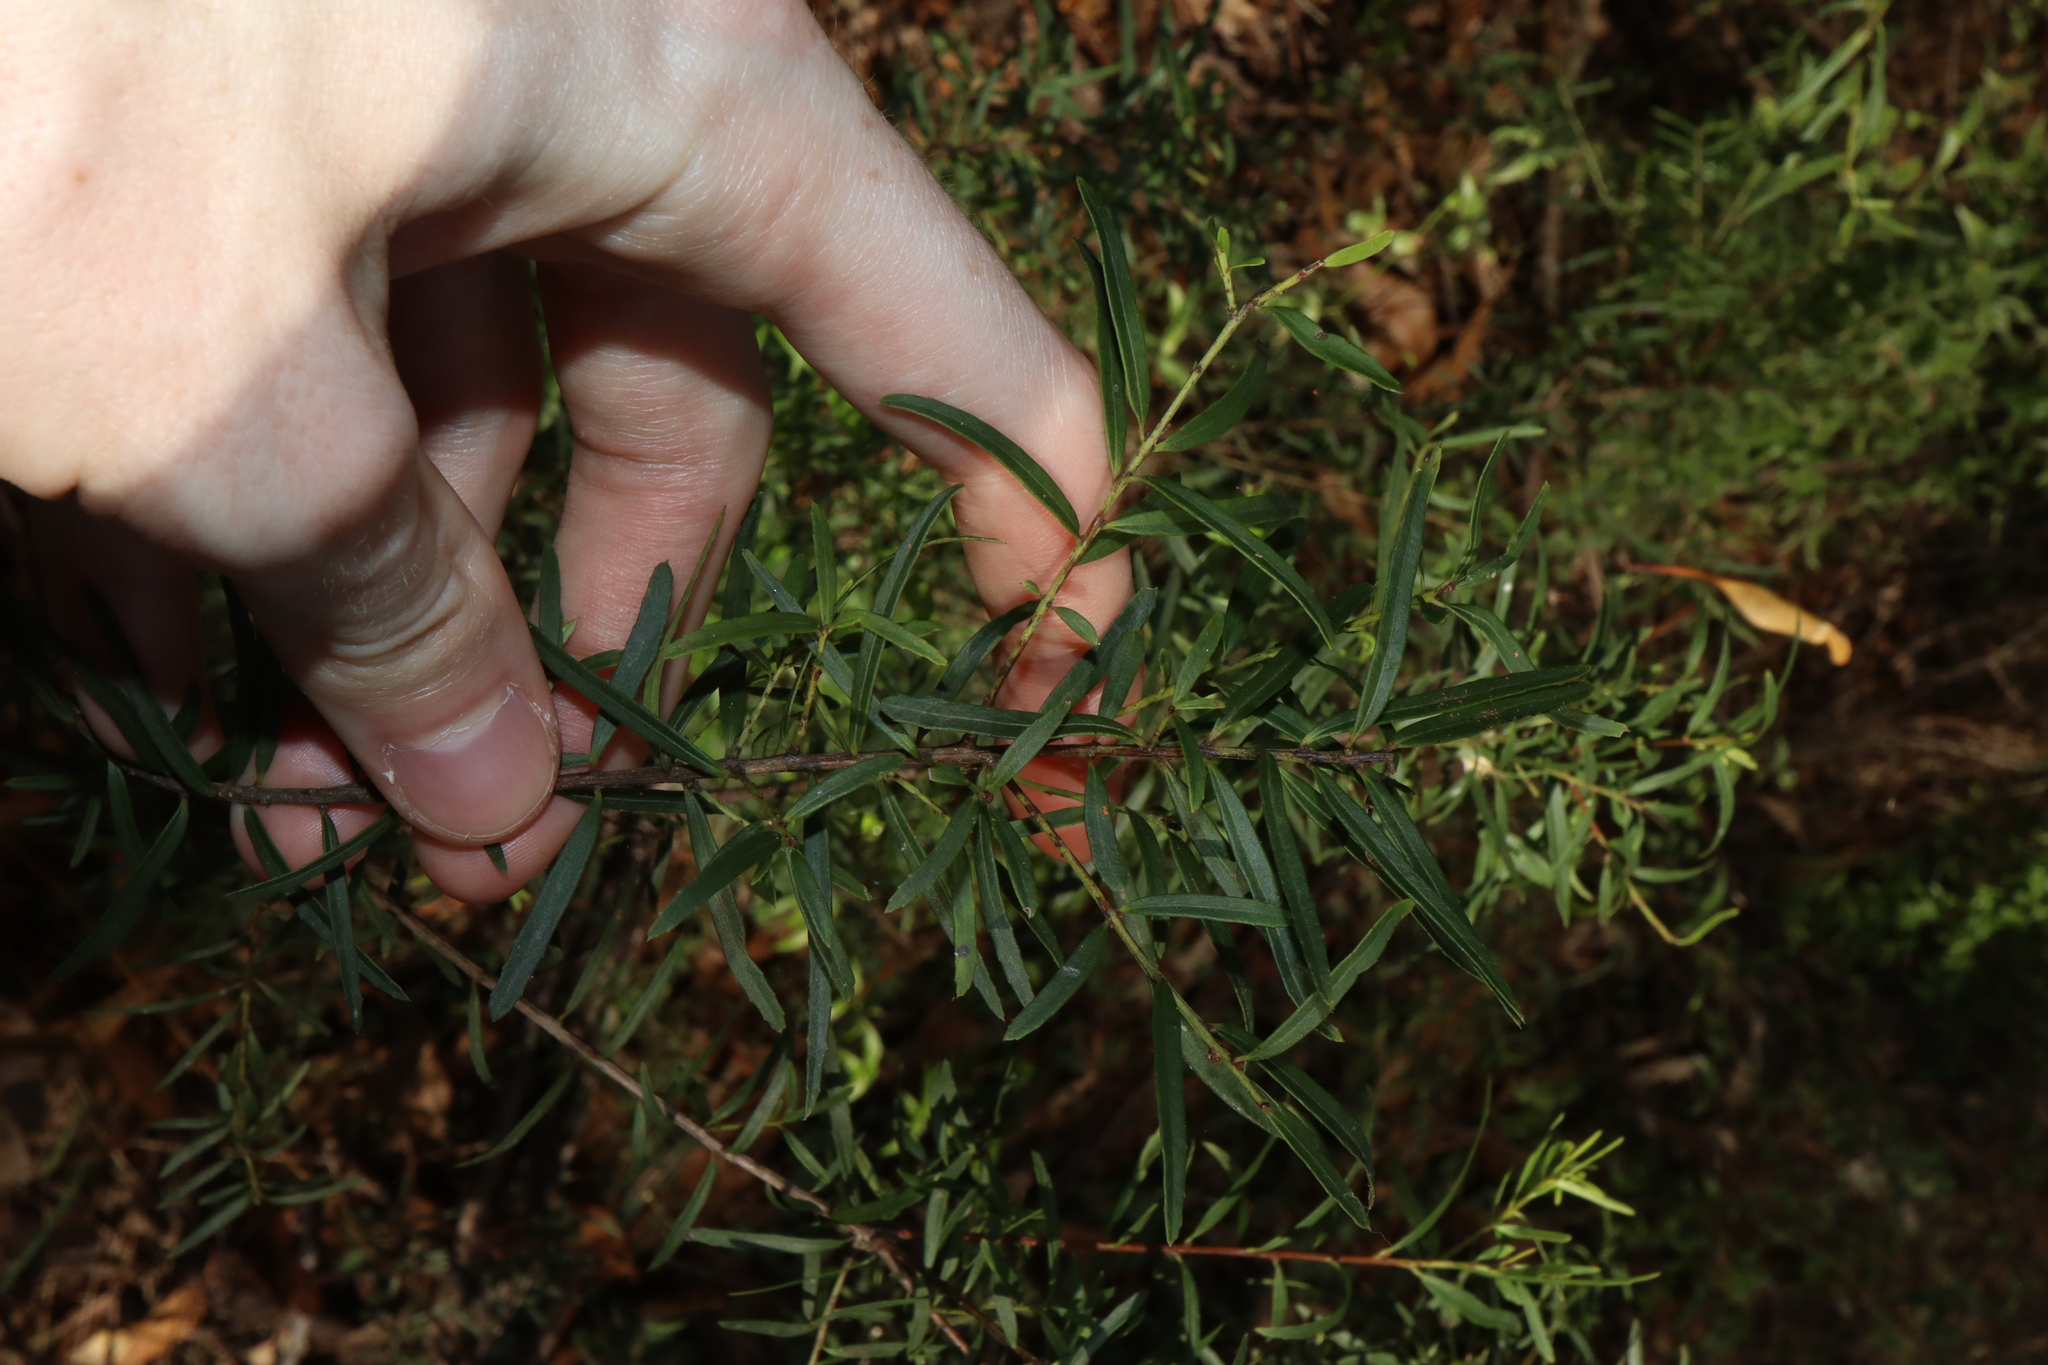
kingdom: Plantae
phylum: Tracheophyta
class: Magnoliopsida
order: Celastrales
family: Celastraceae
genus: Denhamia
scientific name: Denhamia silvestris
